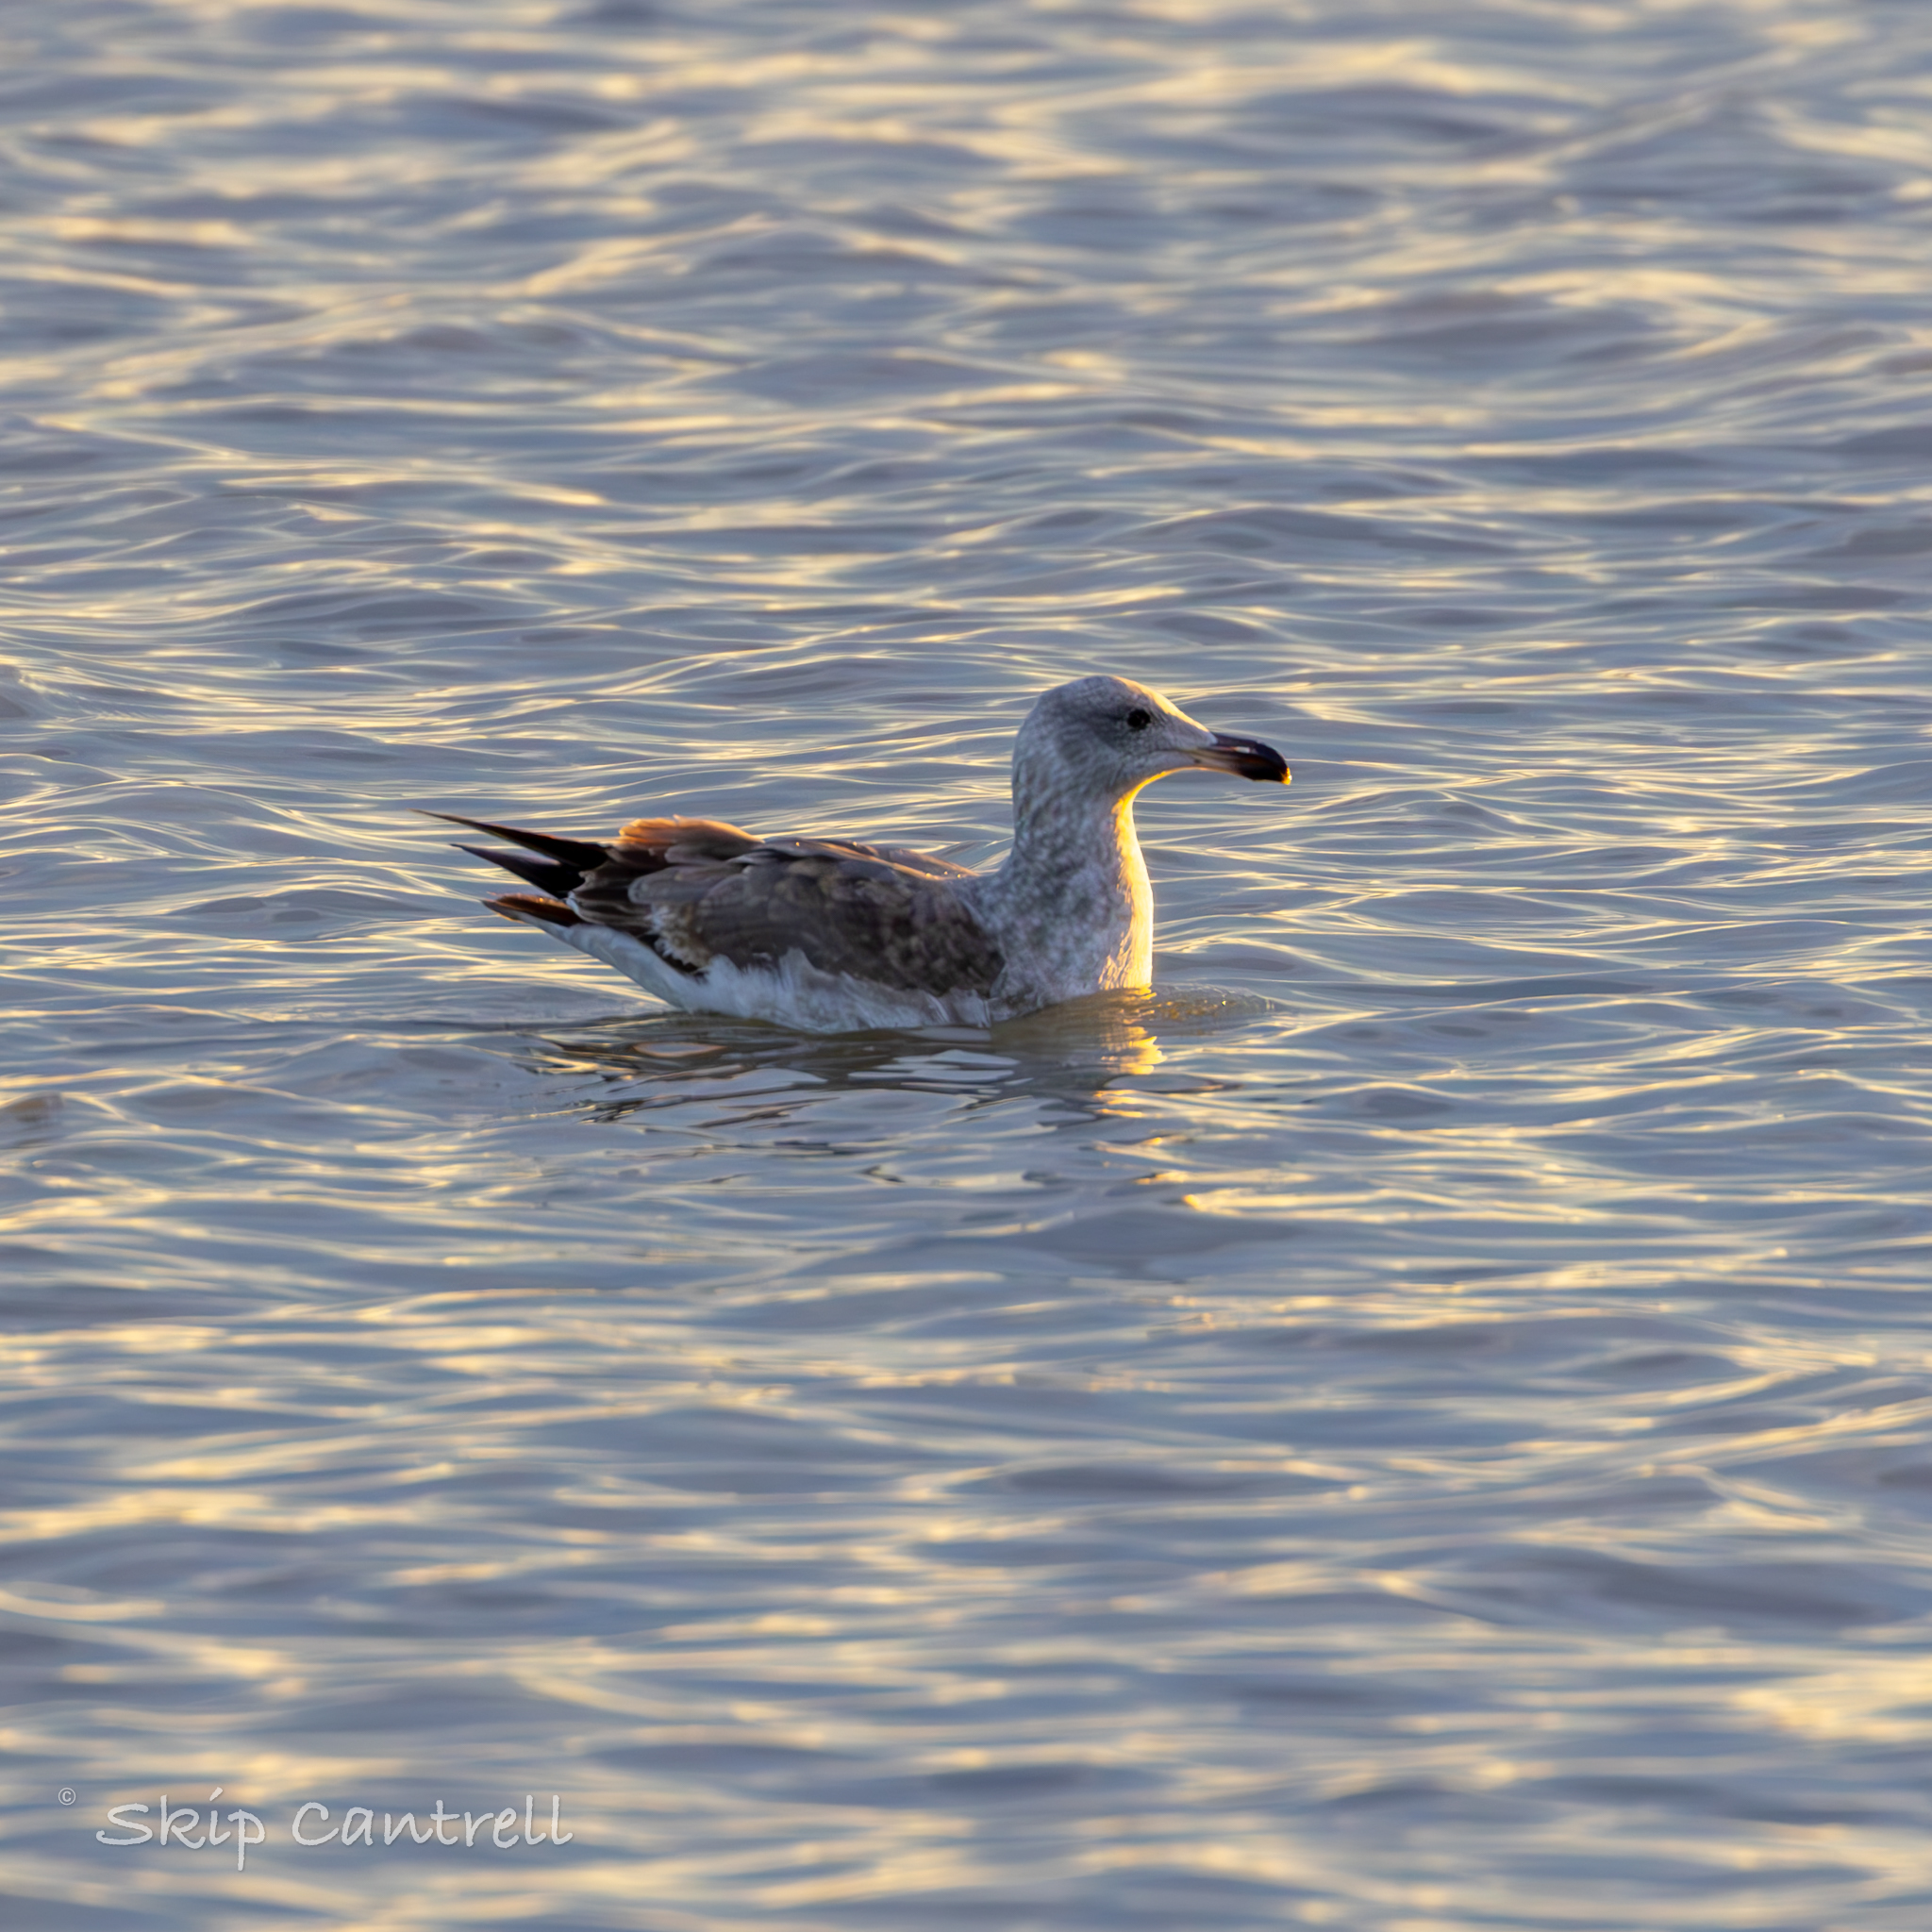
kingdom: Animalia
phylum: Chordata
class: Aves
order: Charadriiformes
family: Laridae
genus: Larus
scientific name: Larus livens
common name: Yellow-footed gull
